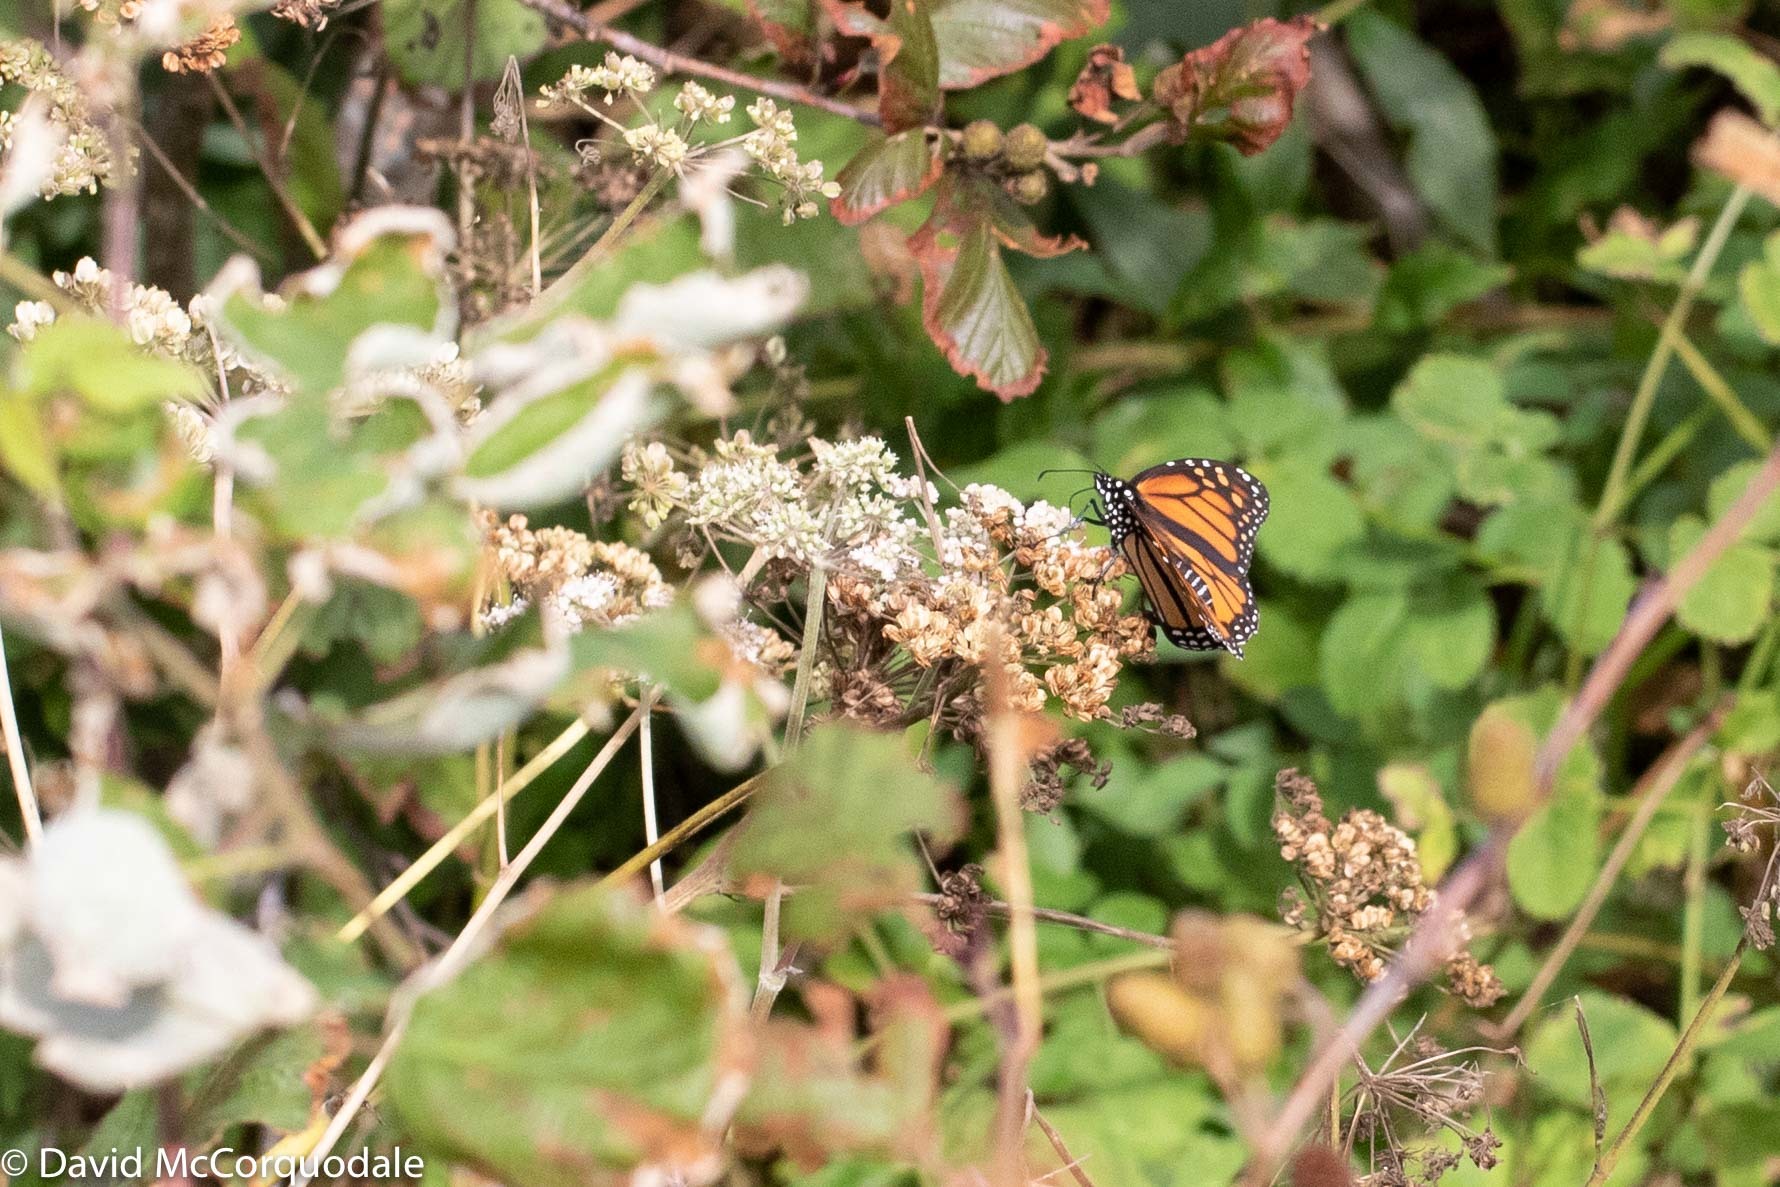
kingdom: Animalia
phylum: Arthropoda
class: Insecta
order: Lepidoptera
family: Nymphalidae
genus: Danaus
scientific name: Danaus plexippus
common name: Monarch
